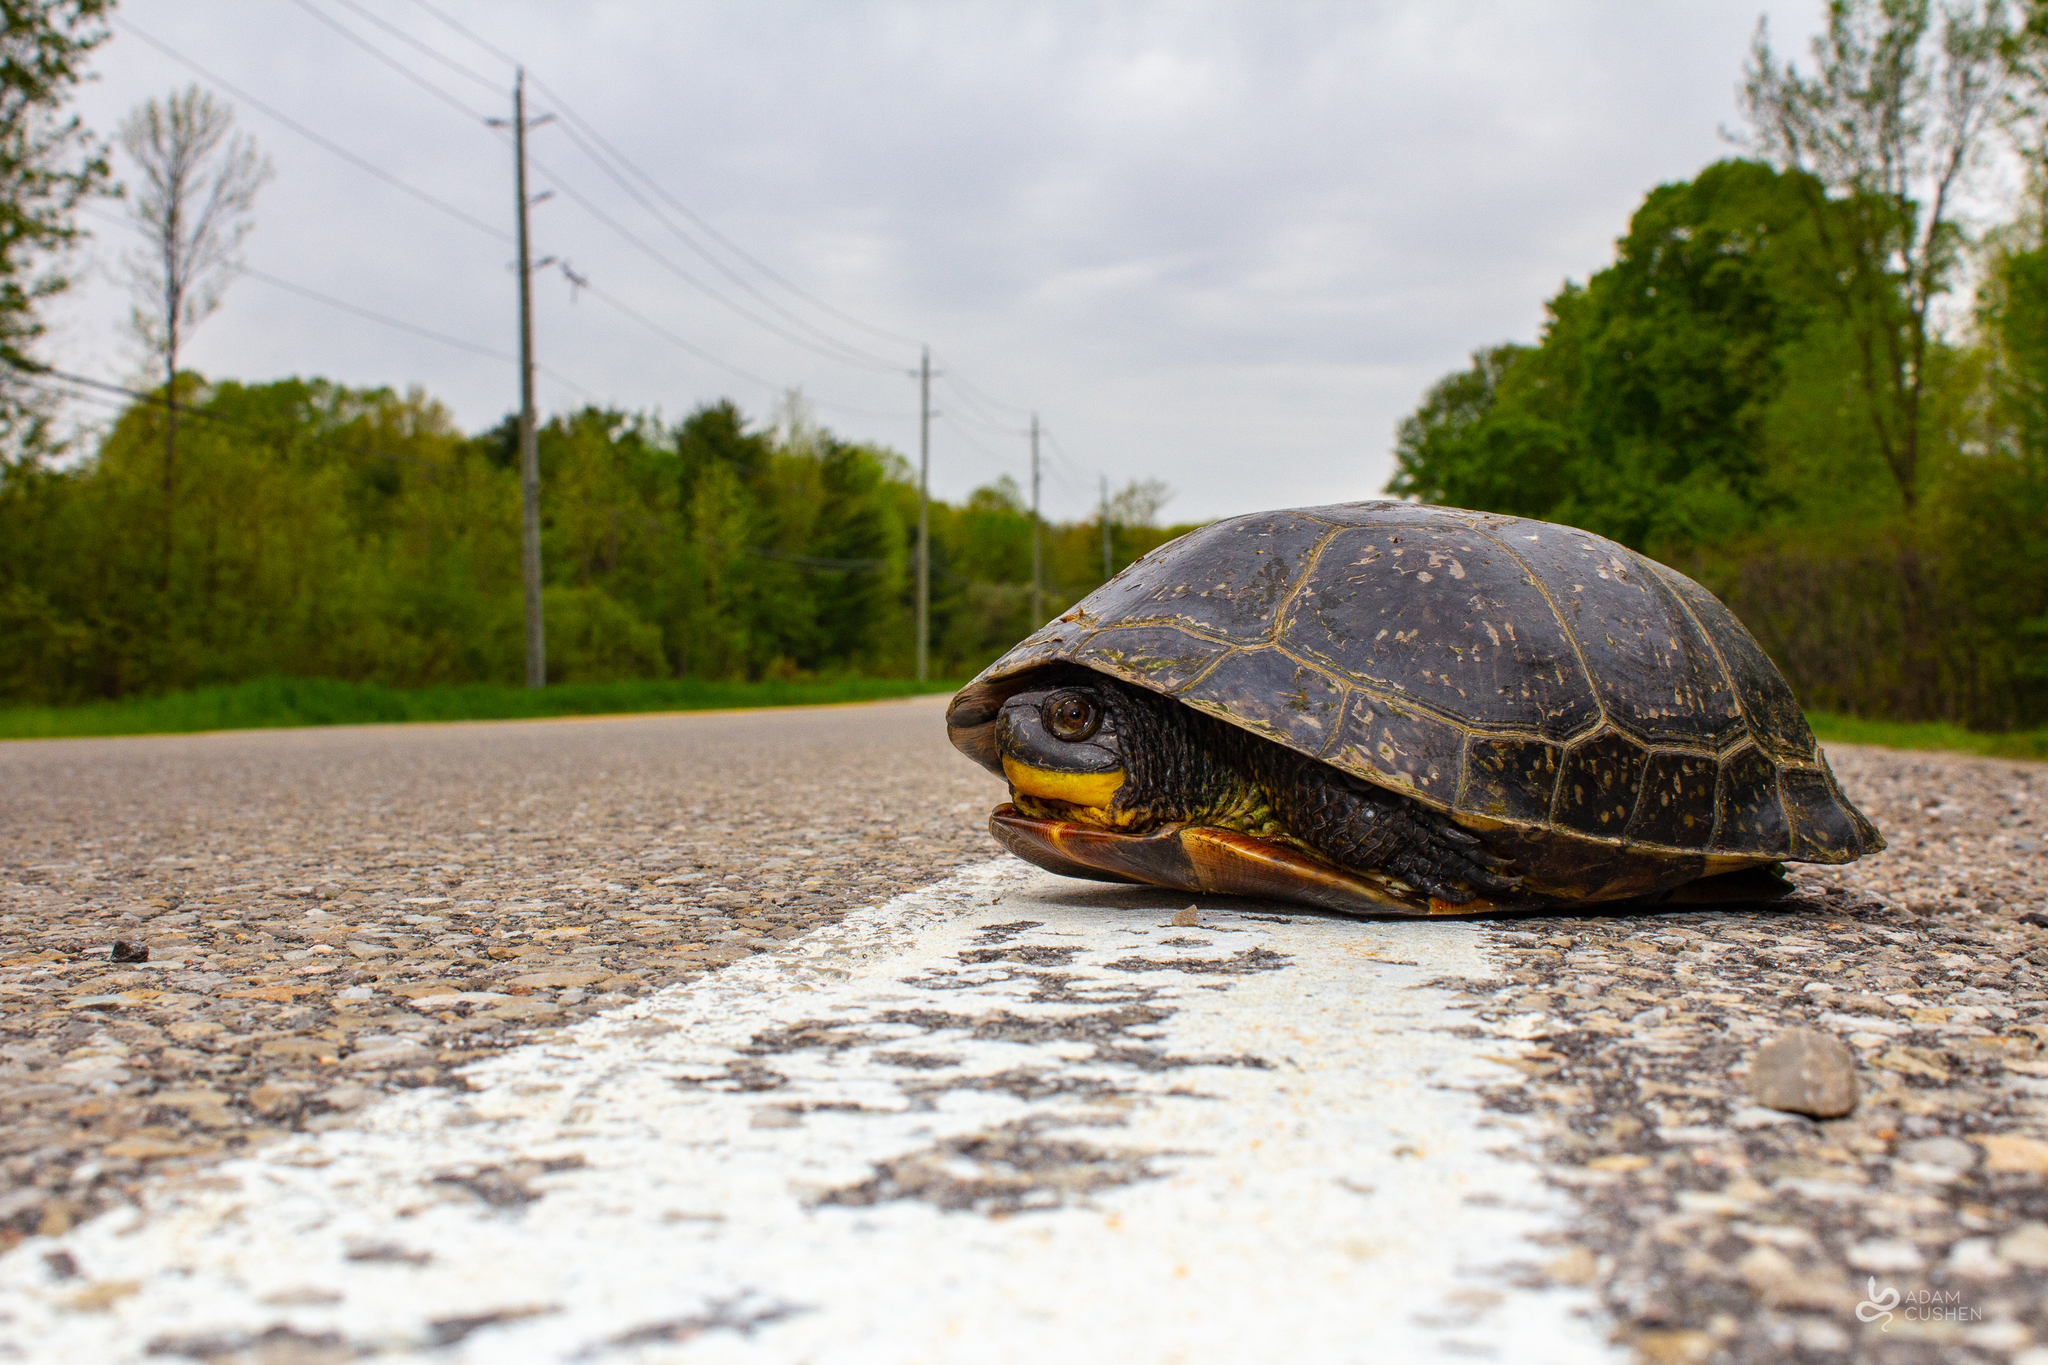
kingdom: Animalia
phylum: Chordata
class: Testudines
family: Emydidae
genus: Emys
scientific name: Emys blandingii
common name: Blanding's turtle
